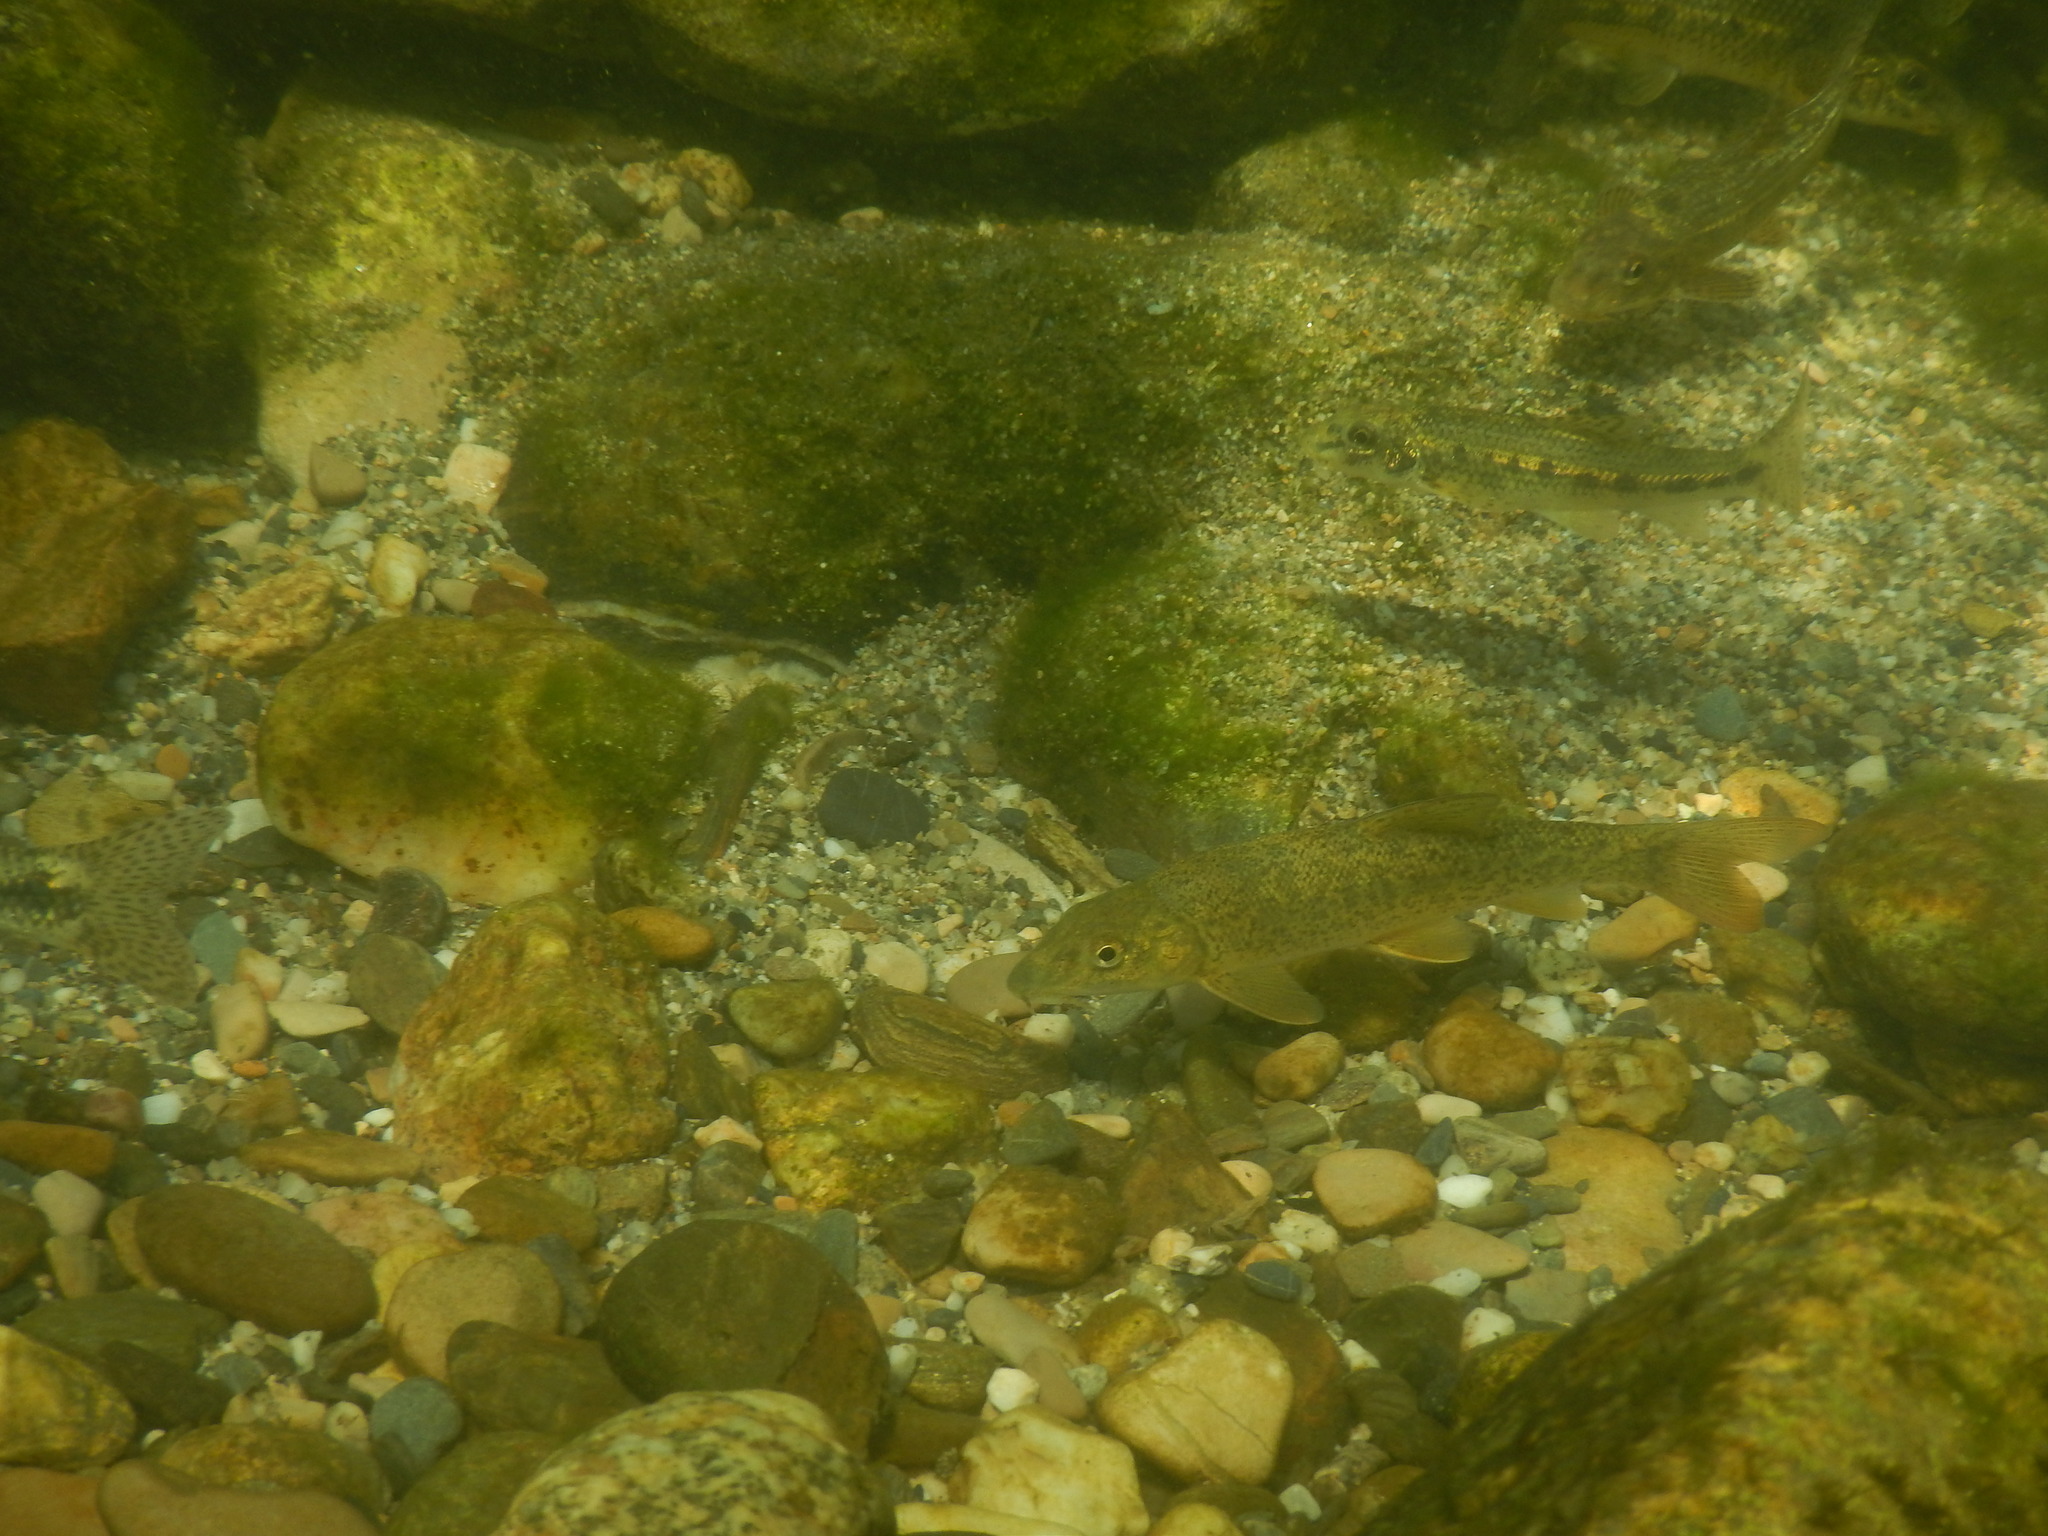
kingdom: Animalia
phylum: Chordata
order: Cypriniformes
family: Cyprinidae
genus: Barbus
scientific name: Barbus barbus
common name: Barbel
